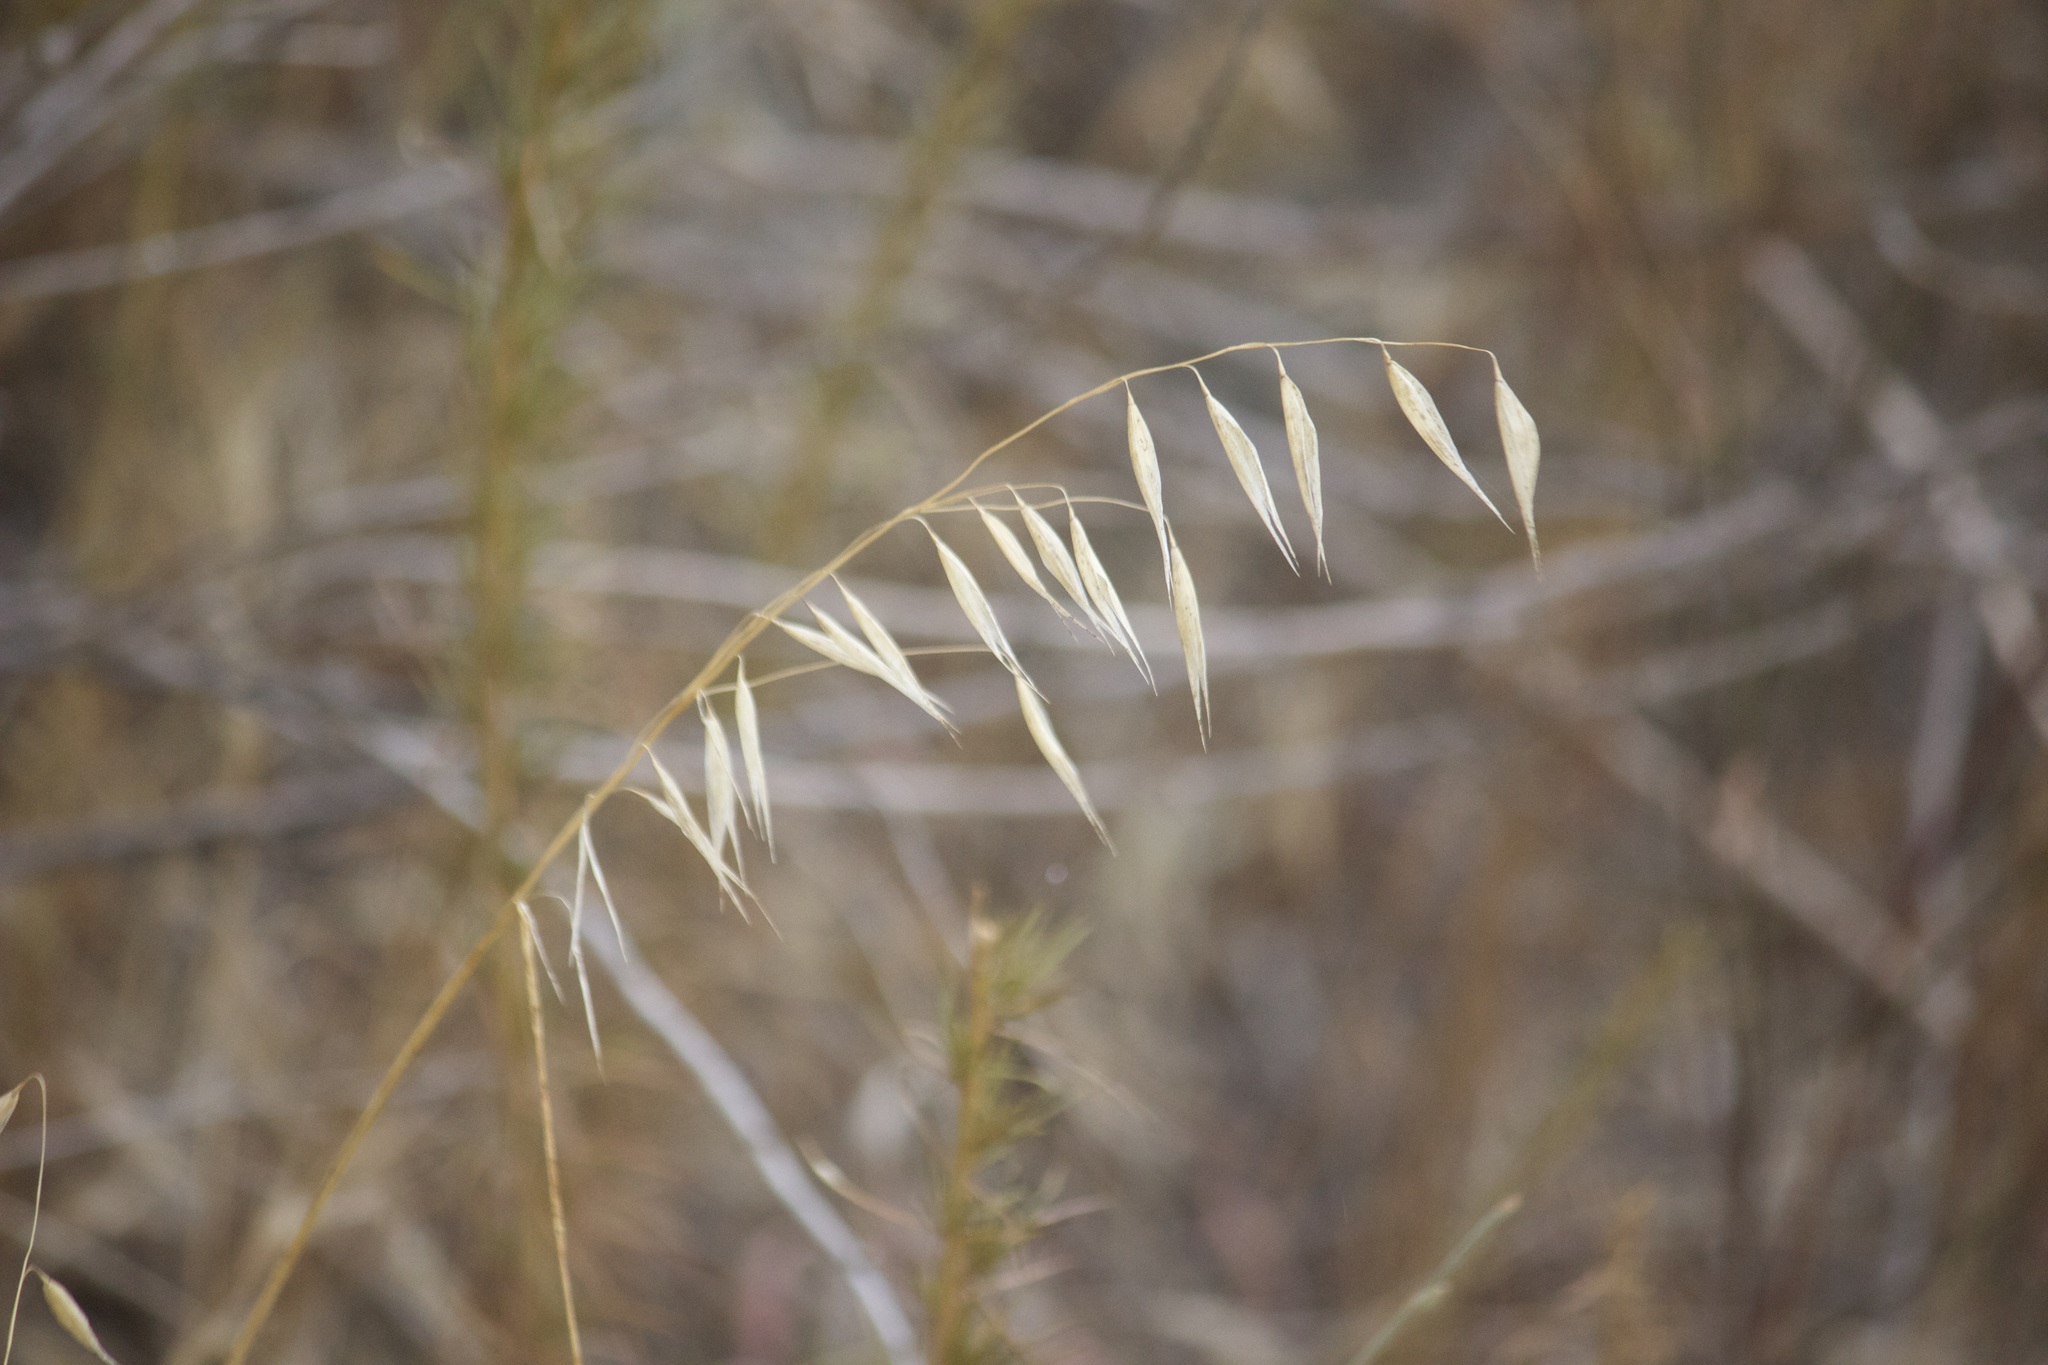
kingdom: Plantae
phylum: Tracheophyta
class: Liliopsida
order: Poales
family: Poaceae
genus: Avena
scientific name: Avena barbata
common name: Slender oat
